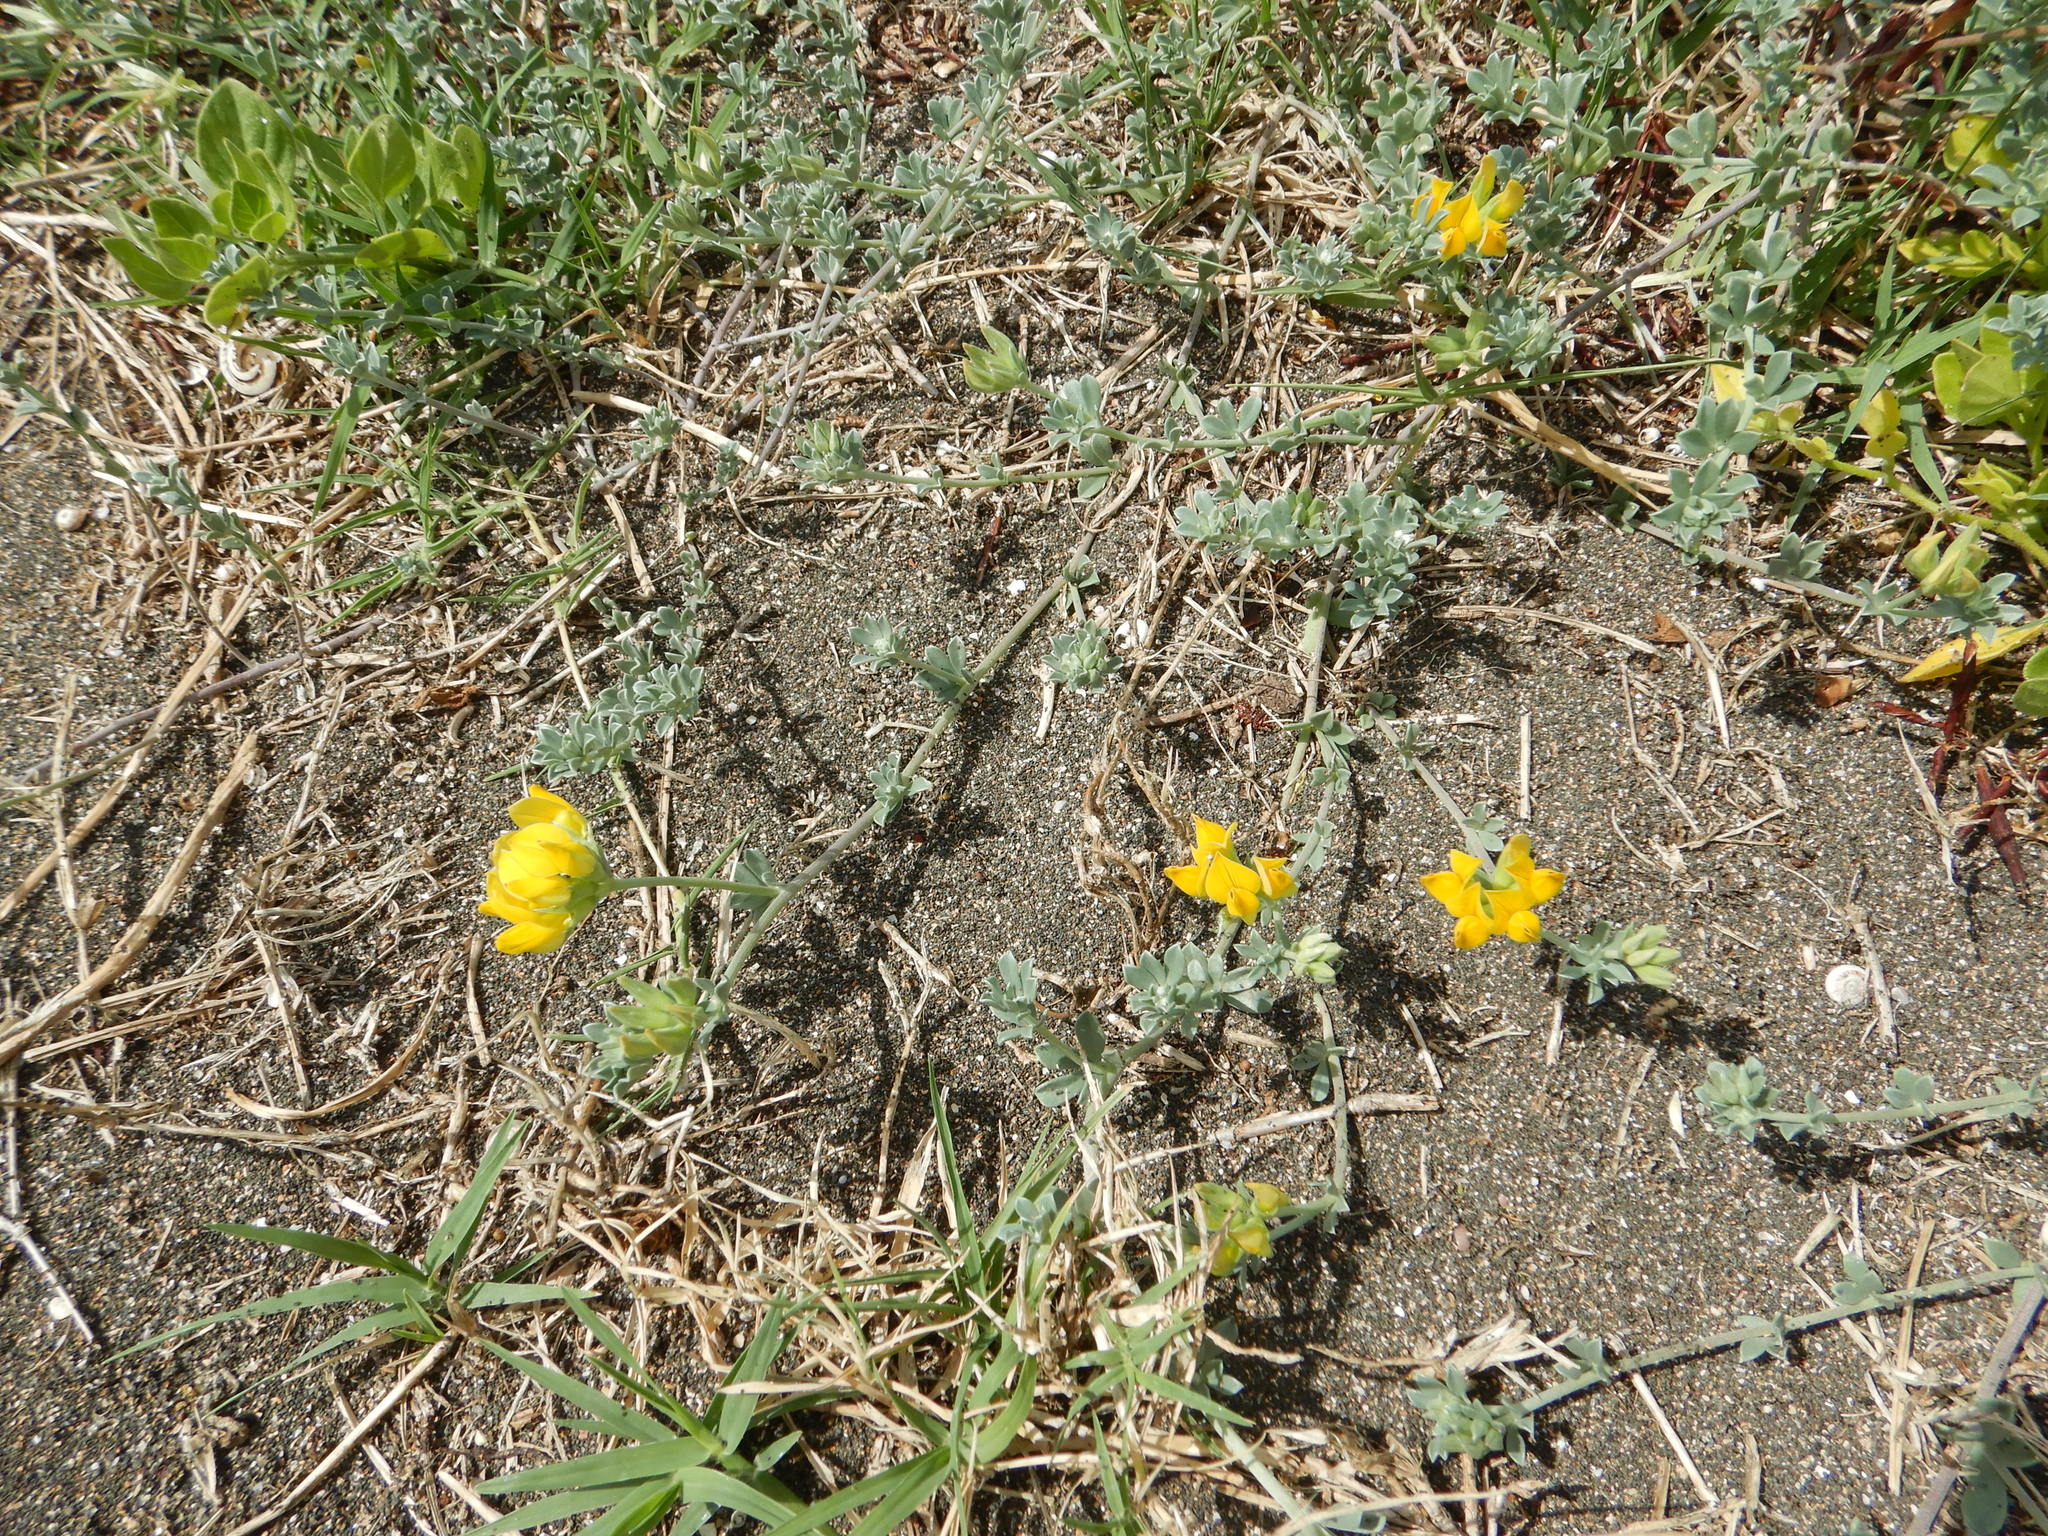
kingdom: Plantae
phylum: Tracheophyta
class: Magnoliopsida
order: Fabales
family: Fabaceae
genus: Lotus
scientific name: Lotus creticus
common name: Cretan bird's-foot trefoil
